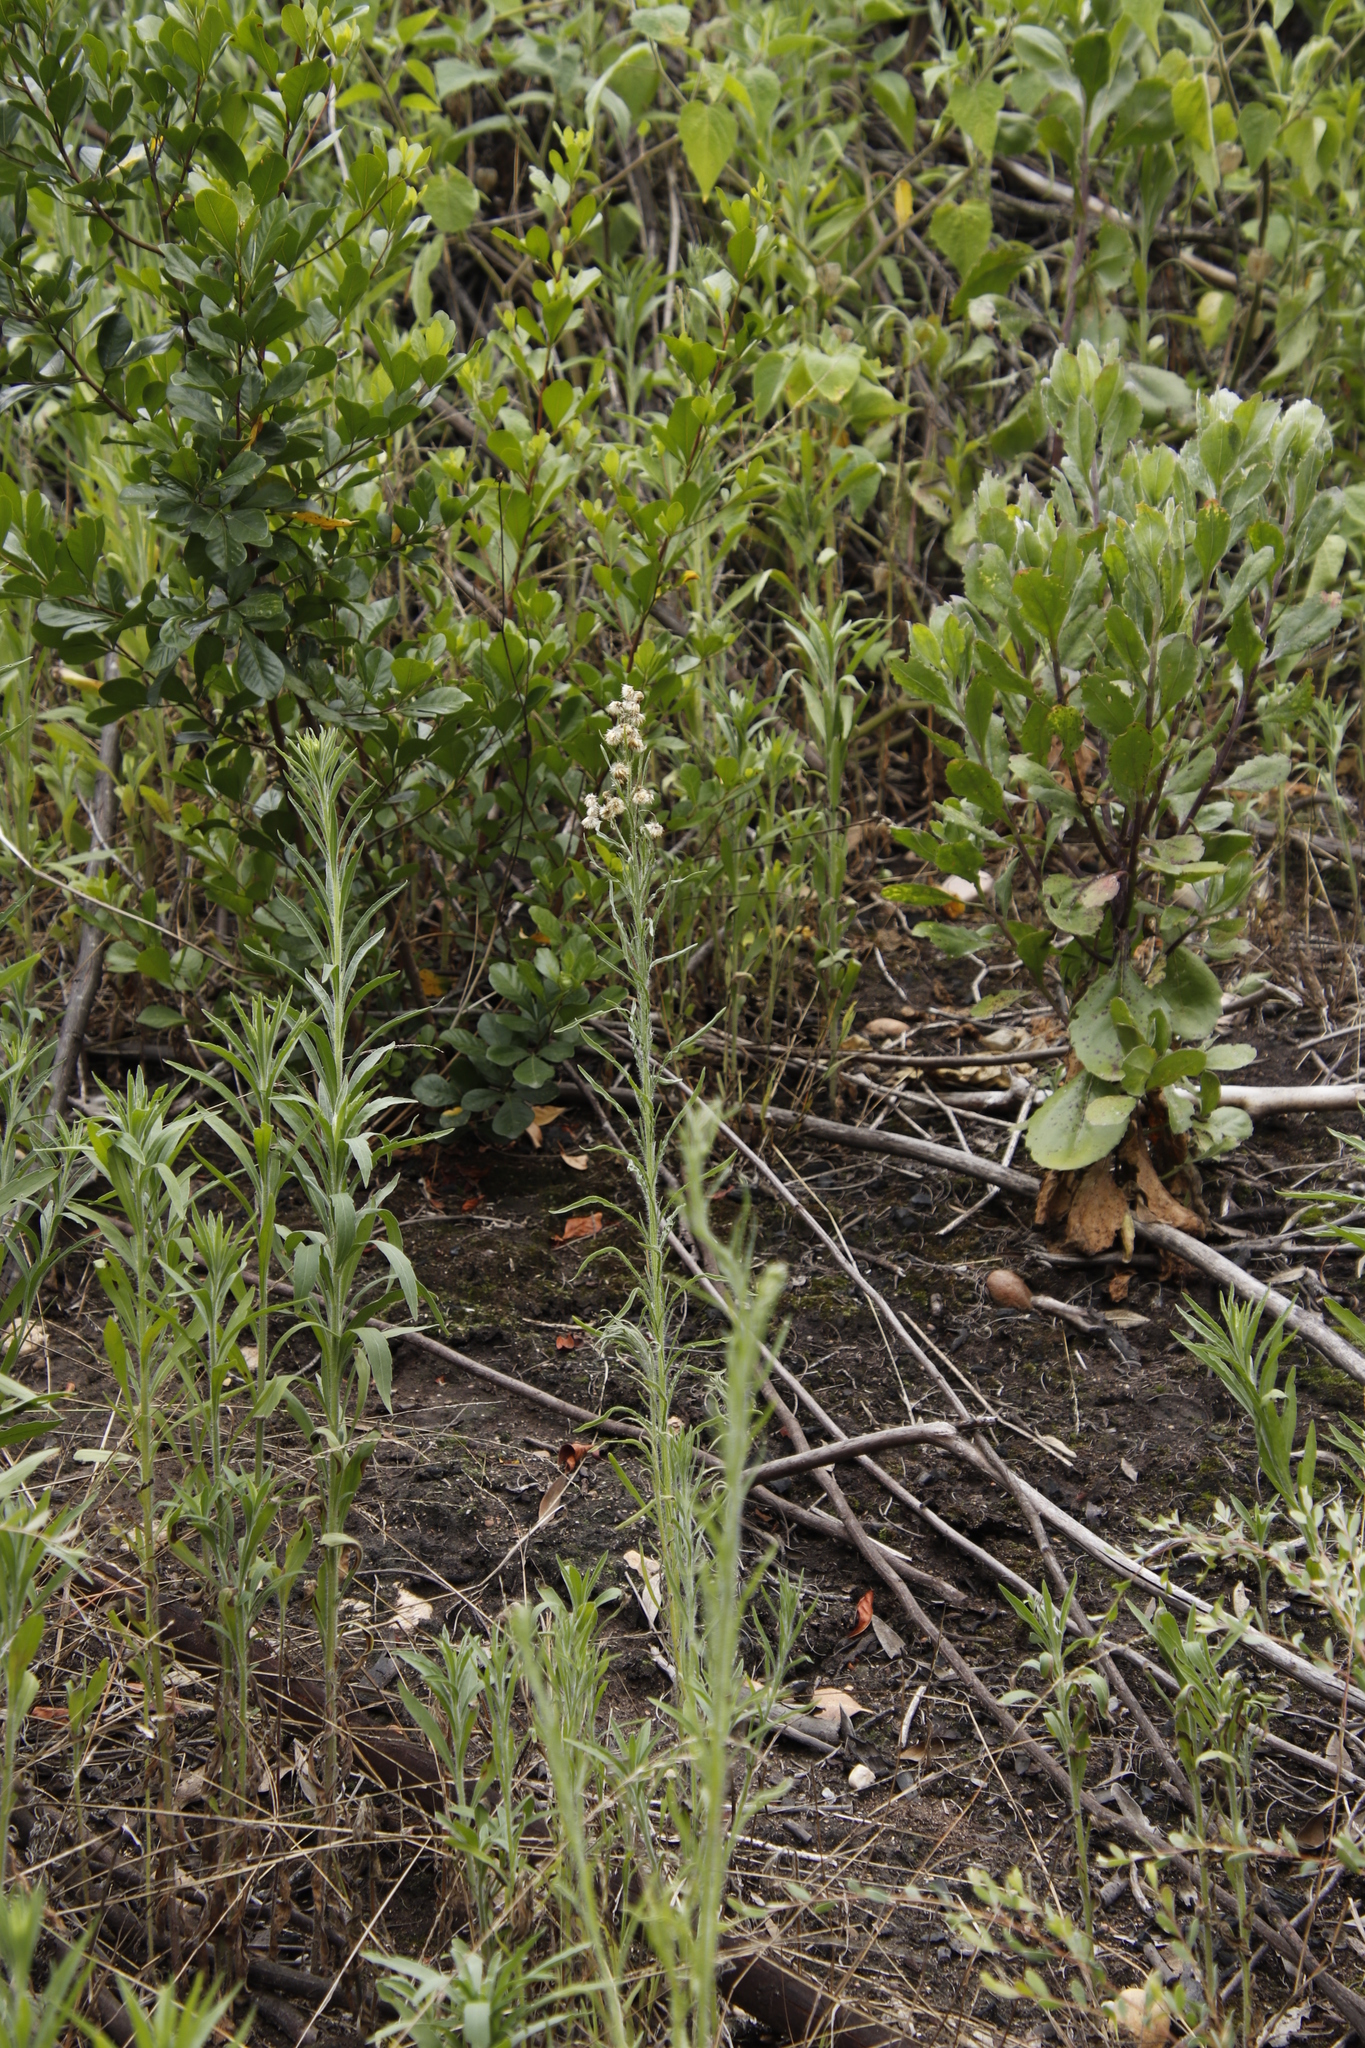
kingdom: Plantae
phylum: Tracheophyta
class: Magnoliopsida
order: Asterales
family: Asteraceae
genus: Erigeron
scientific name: Erigeron bonariensis
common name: Argentine fleabane
